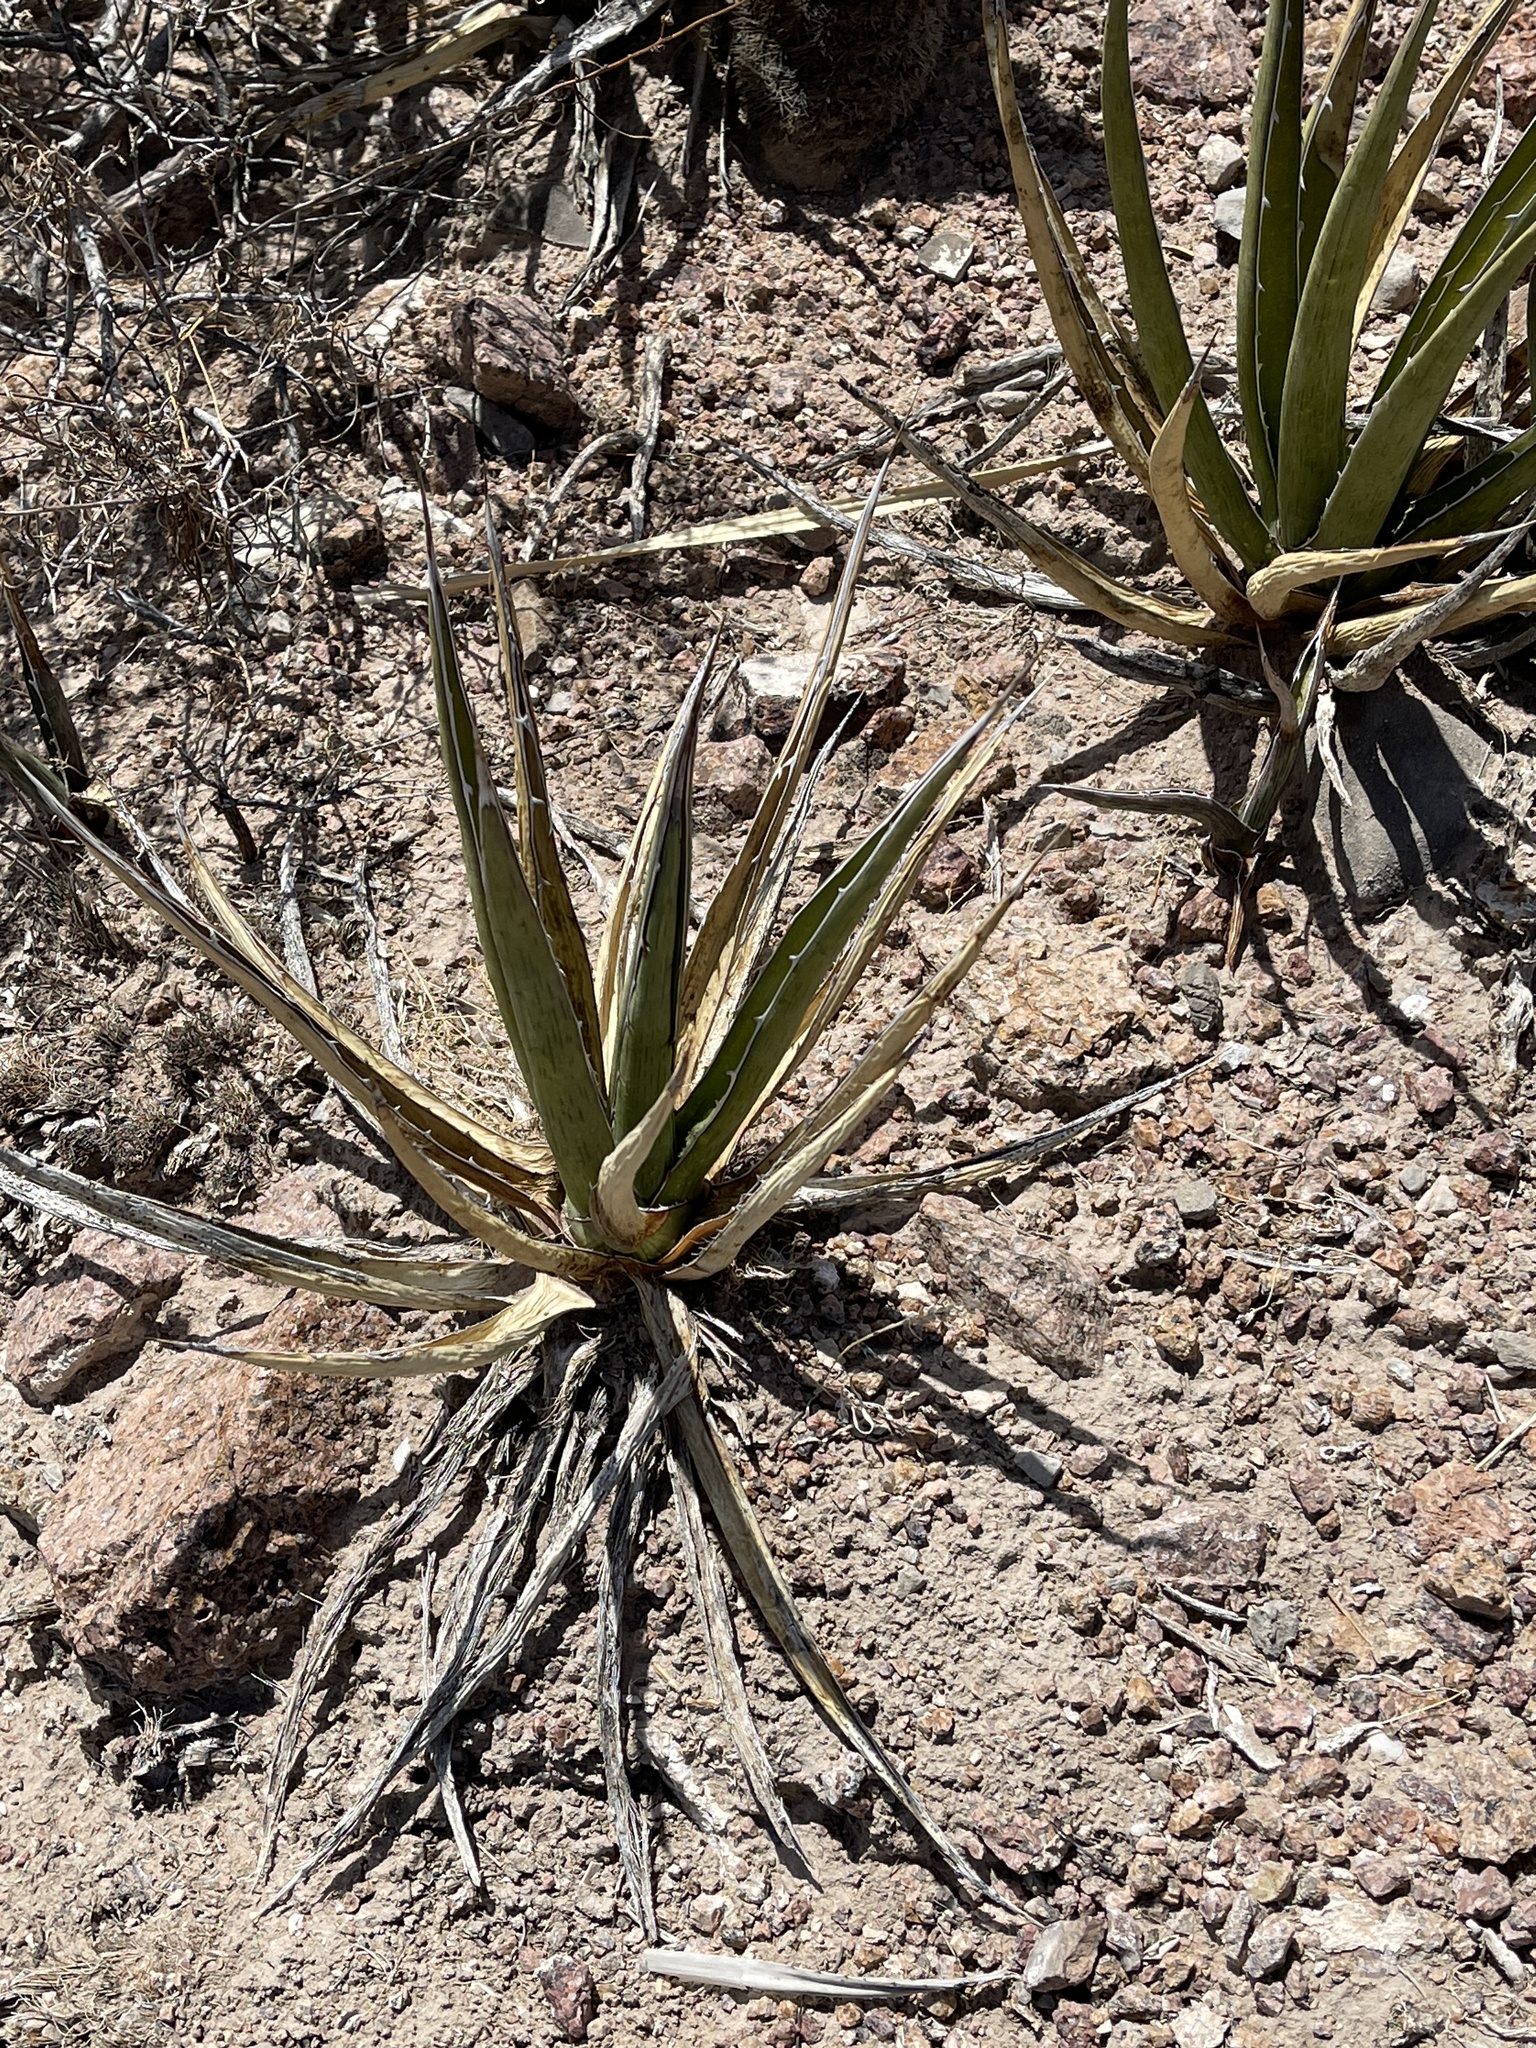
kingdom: Plantae
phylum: Tracheophyta
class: Liliopsida
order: Asparagales
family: Asparagaceae
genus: Agave
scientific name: Agave lechuguilla
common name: Lecheguilla agave
